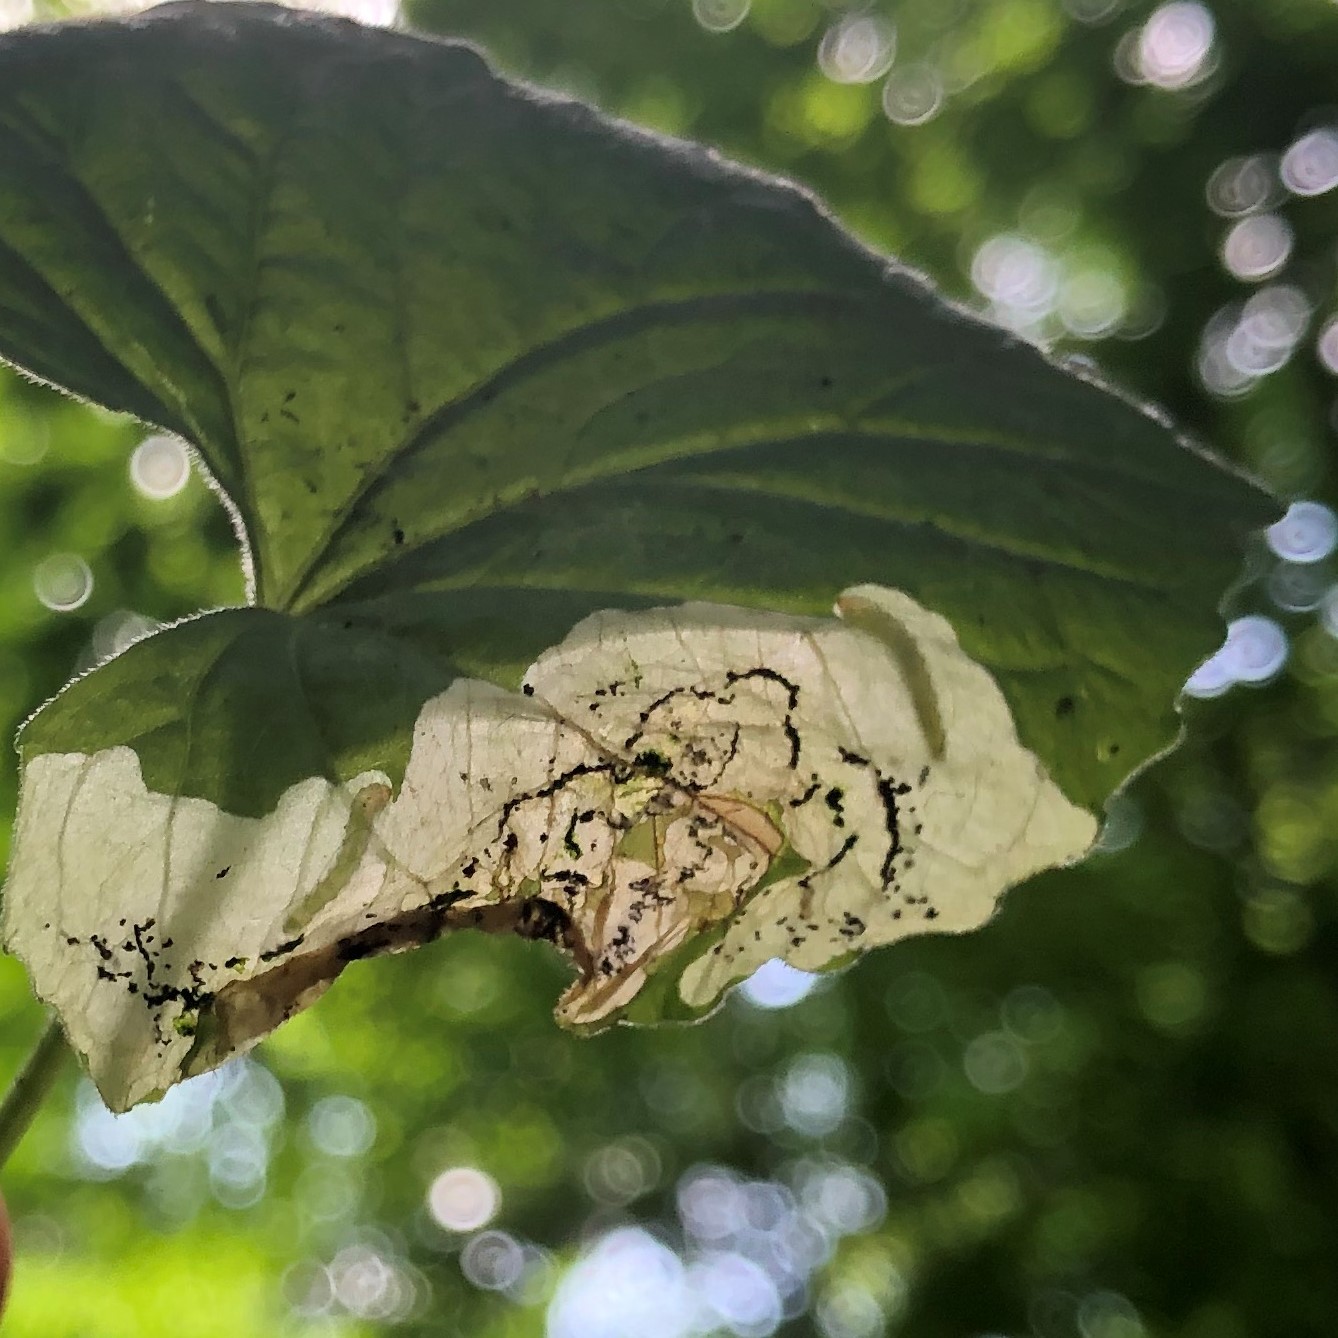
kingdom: Animalia
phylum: Arthropoda
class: Insecta
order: Hymenoptera
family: Tenthredinidae
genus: Nefusa
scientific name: Nefusa ambigua
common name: Violet leafmining sawfly
